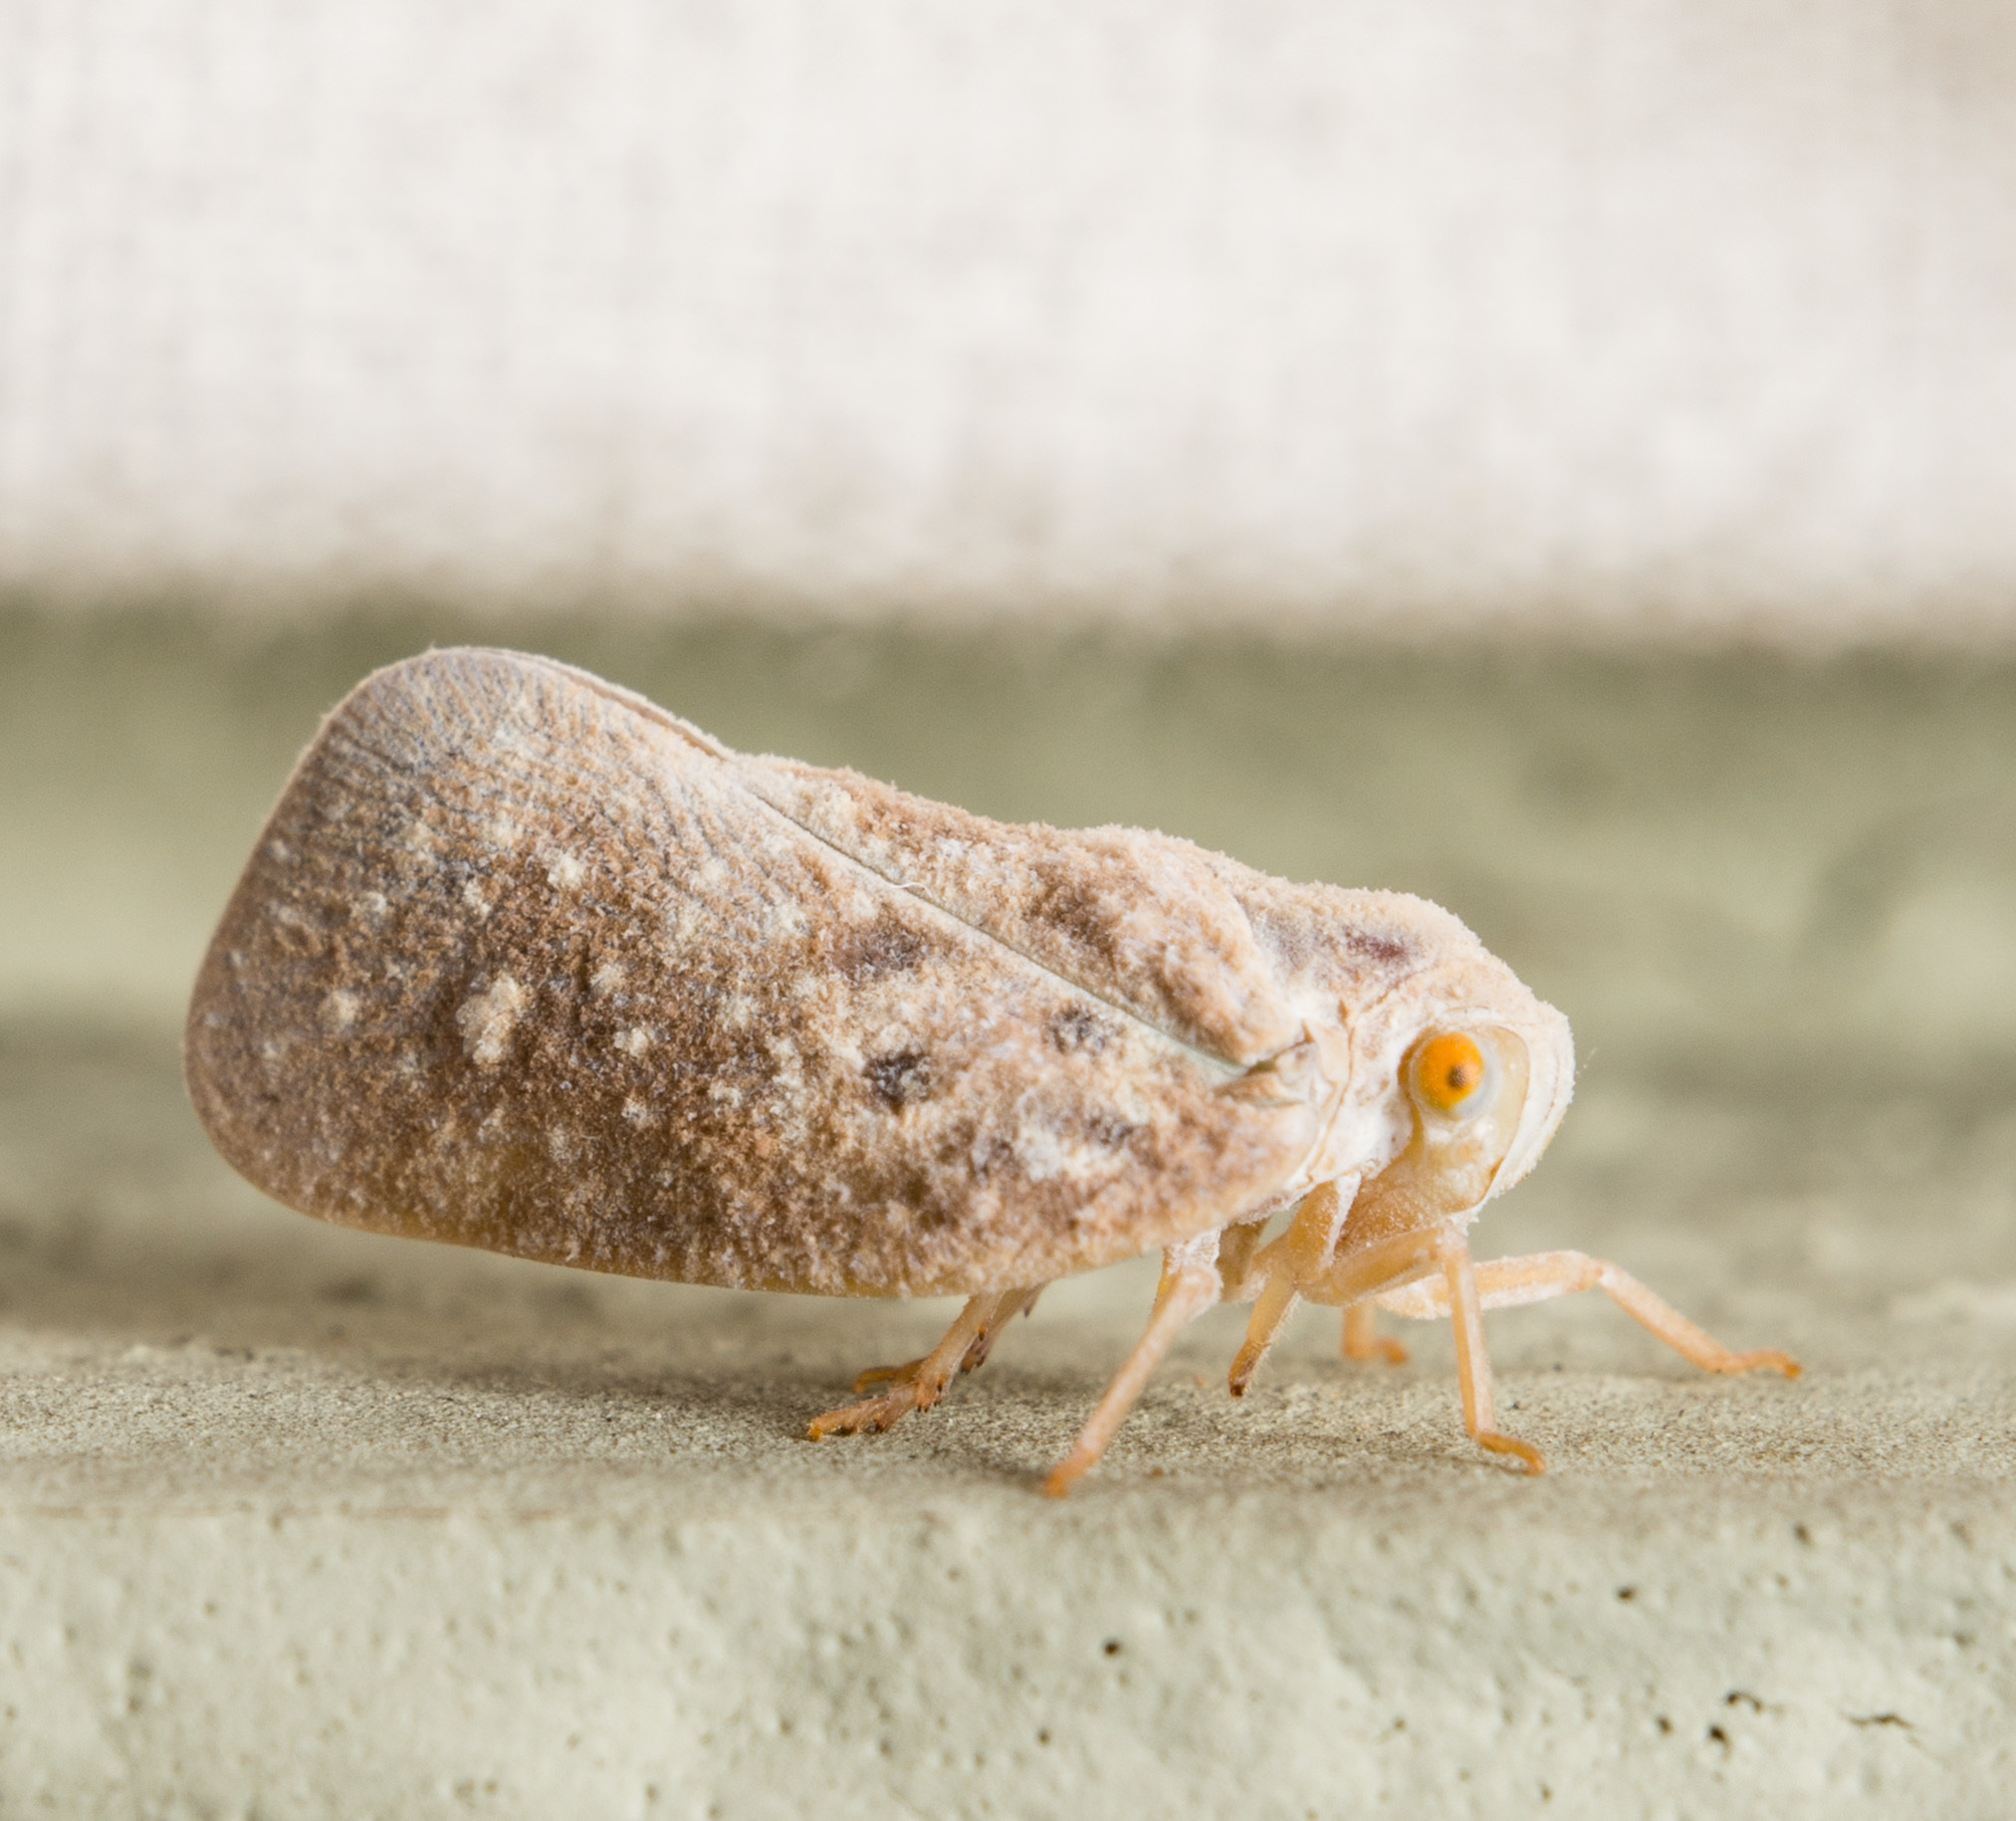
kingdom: Animalia
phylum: Arthropoda
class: Insecta
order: Hemiptera
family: Flatidae
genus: Metcalfa
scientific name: Metcalfa pruinosa
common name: Citrus flatid planthopper
